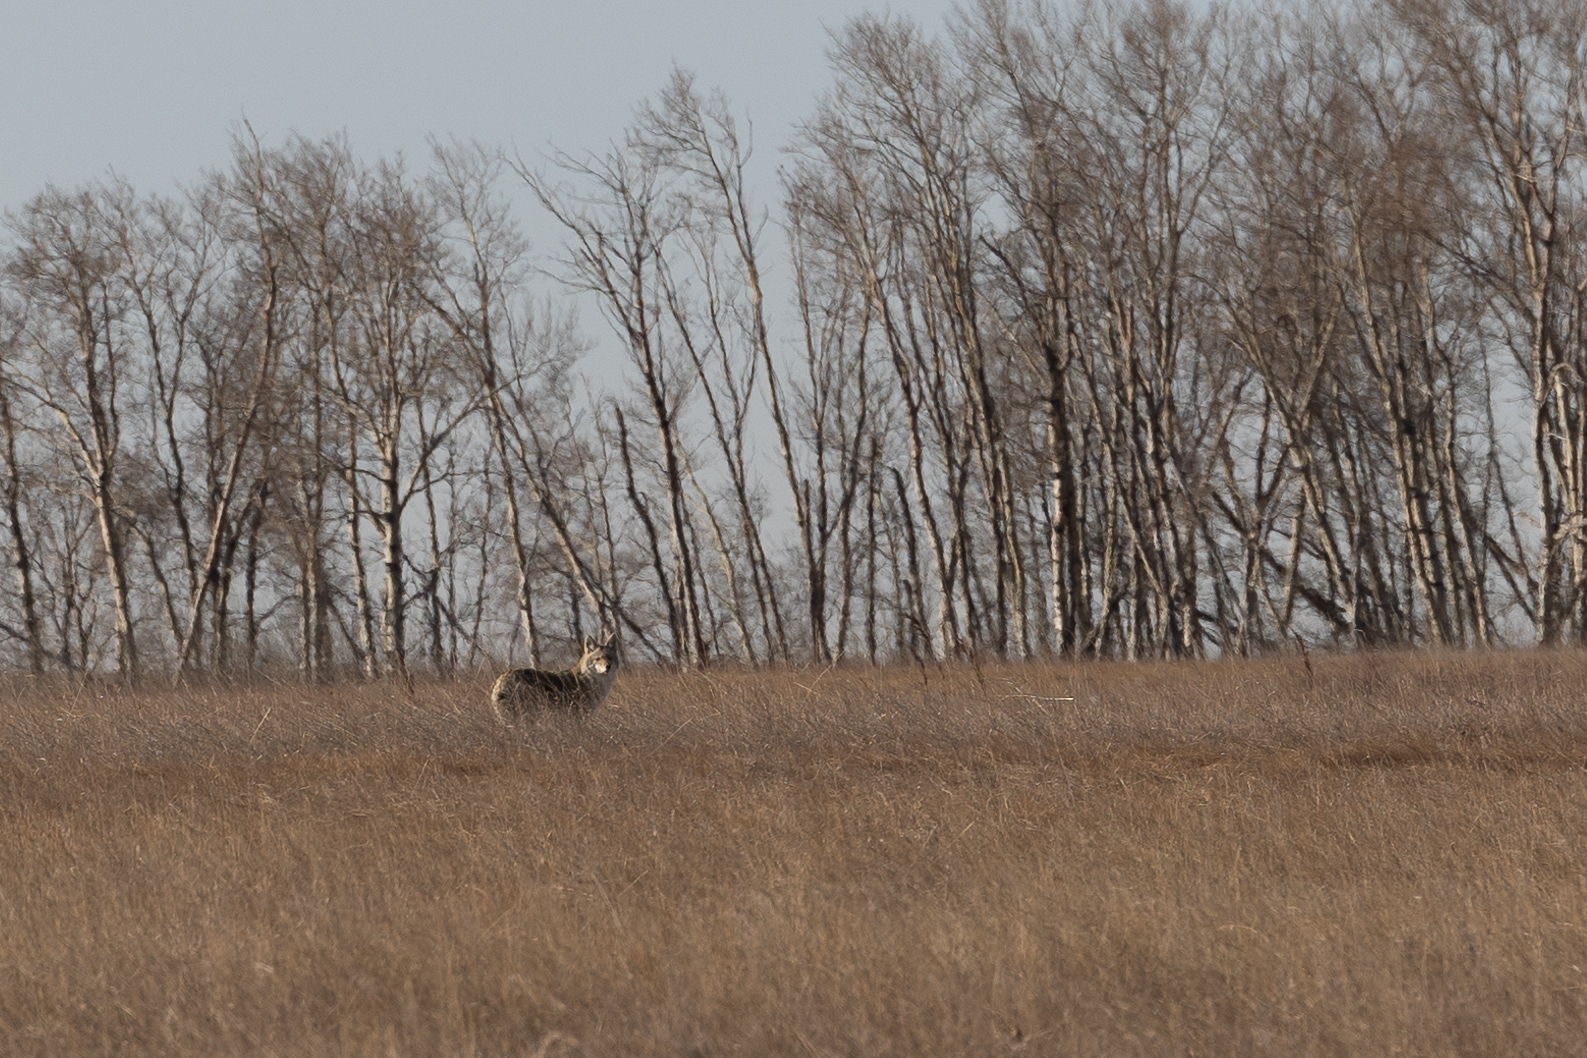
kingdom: Animalia
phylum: Chordata
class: Mammalia
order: Carnivora
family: Canidae
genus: Canis
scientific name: Canis latrans
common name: Coyote
